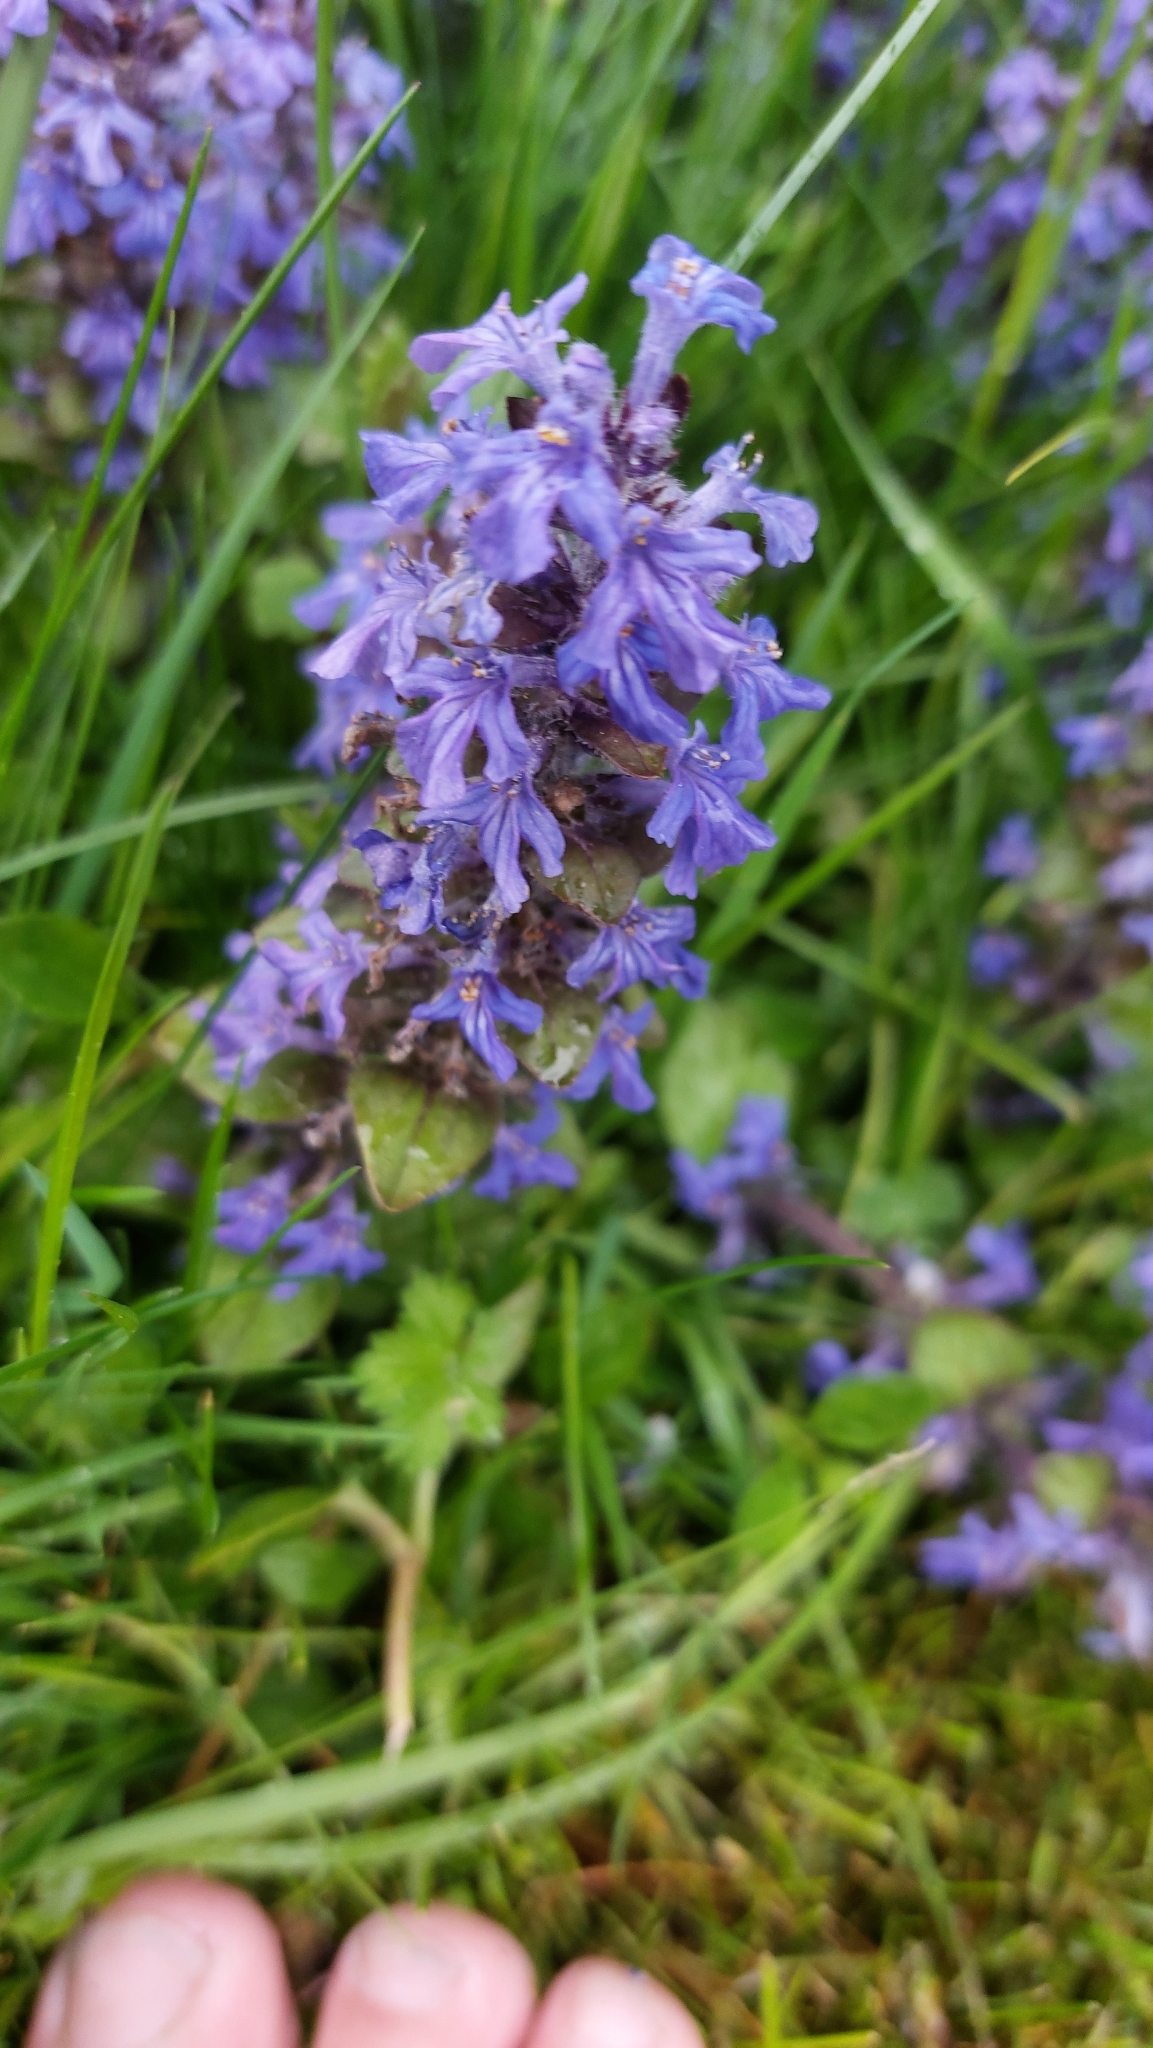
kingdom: Plantae
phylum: Tracheophyta
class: Magnoliopsida
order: Lamiales
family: Lamiaceae
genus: Ajuga
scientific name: Ajuga reptans
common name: Bugle
